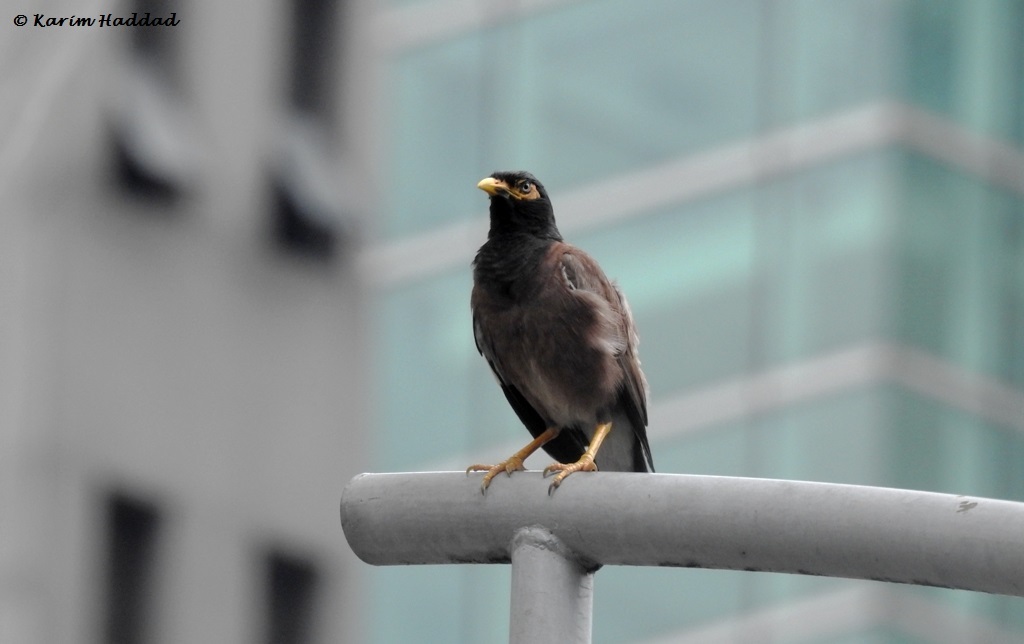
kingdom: Animalia
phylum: Chordata
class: Aves
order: Passeriformes
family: Sturnidae
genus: Acridotheres
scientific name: Acridotheres tristis
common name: Common myna
